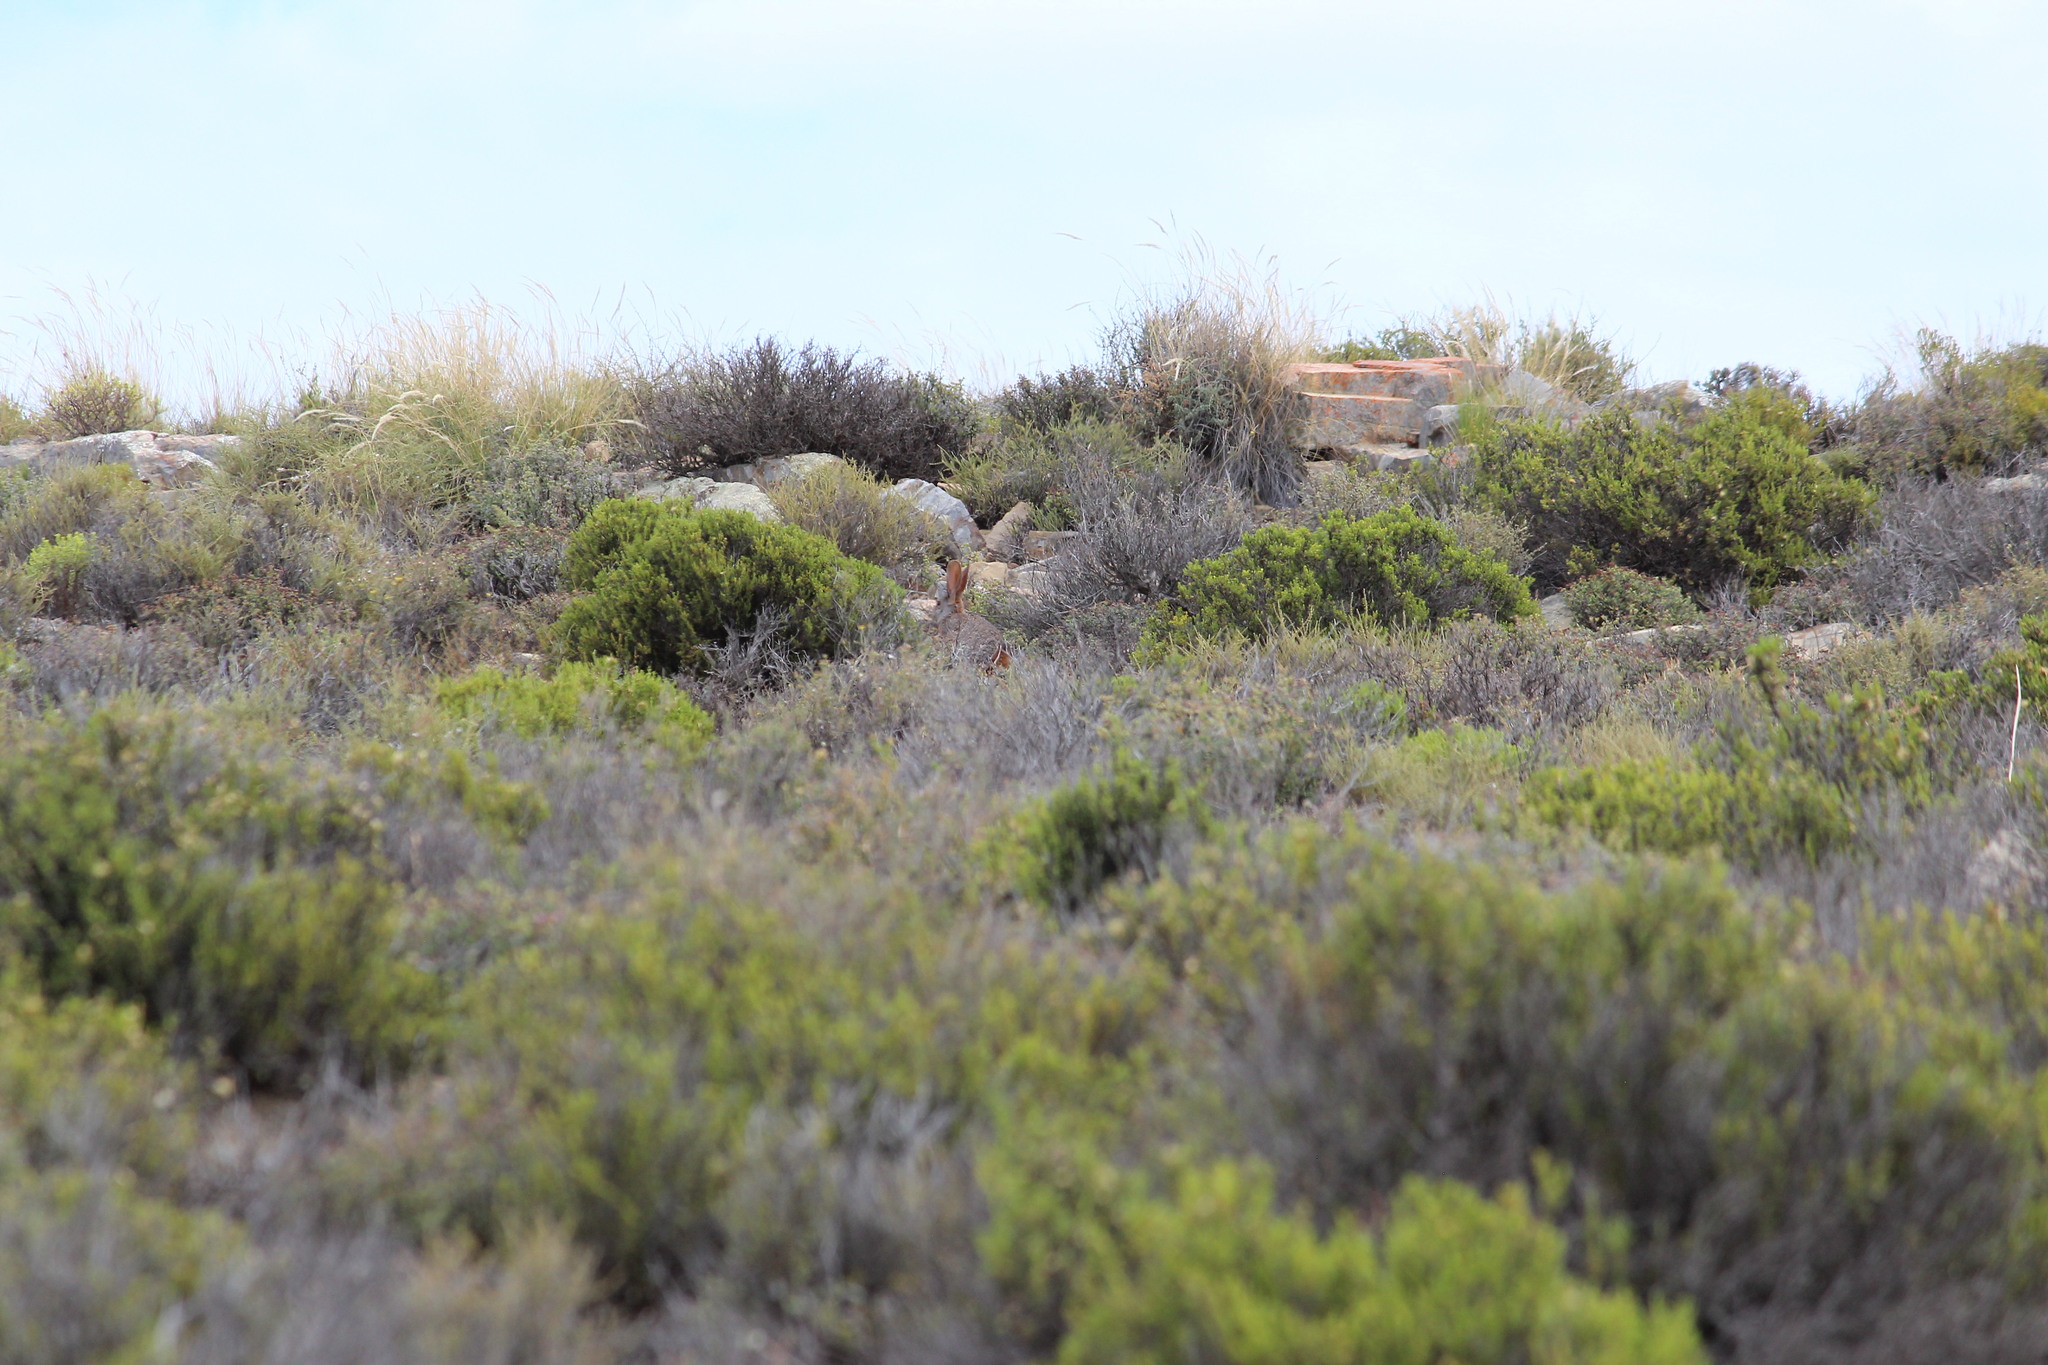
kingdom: Animalia
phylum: Chordata
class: Mammalia
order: Lagomorpha
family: Leporidae
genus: Pronolagus
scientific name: Pronolagus saundersiae
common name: Hewitt's red rock hare
